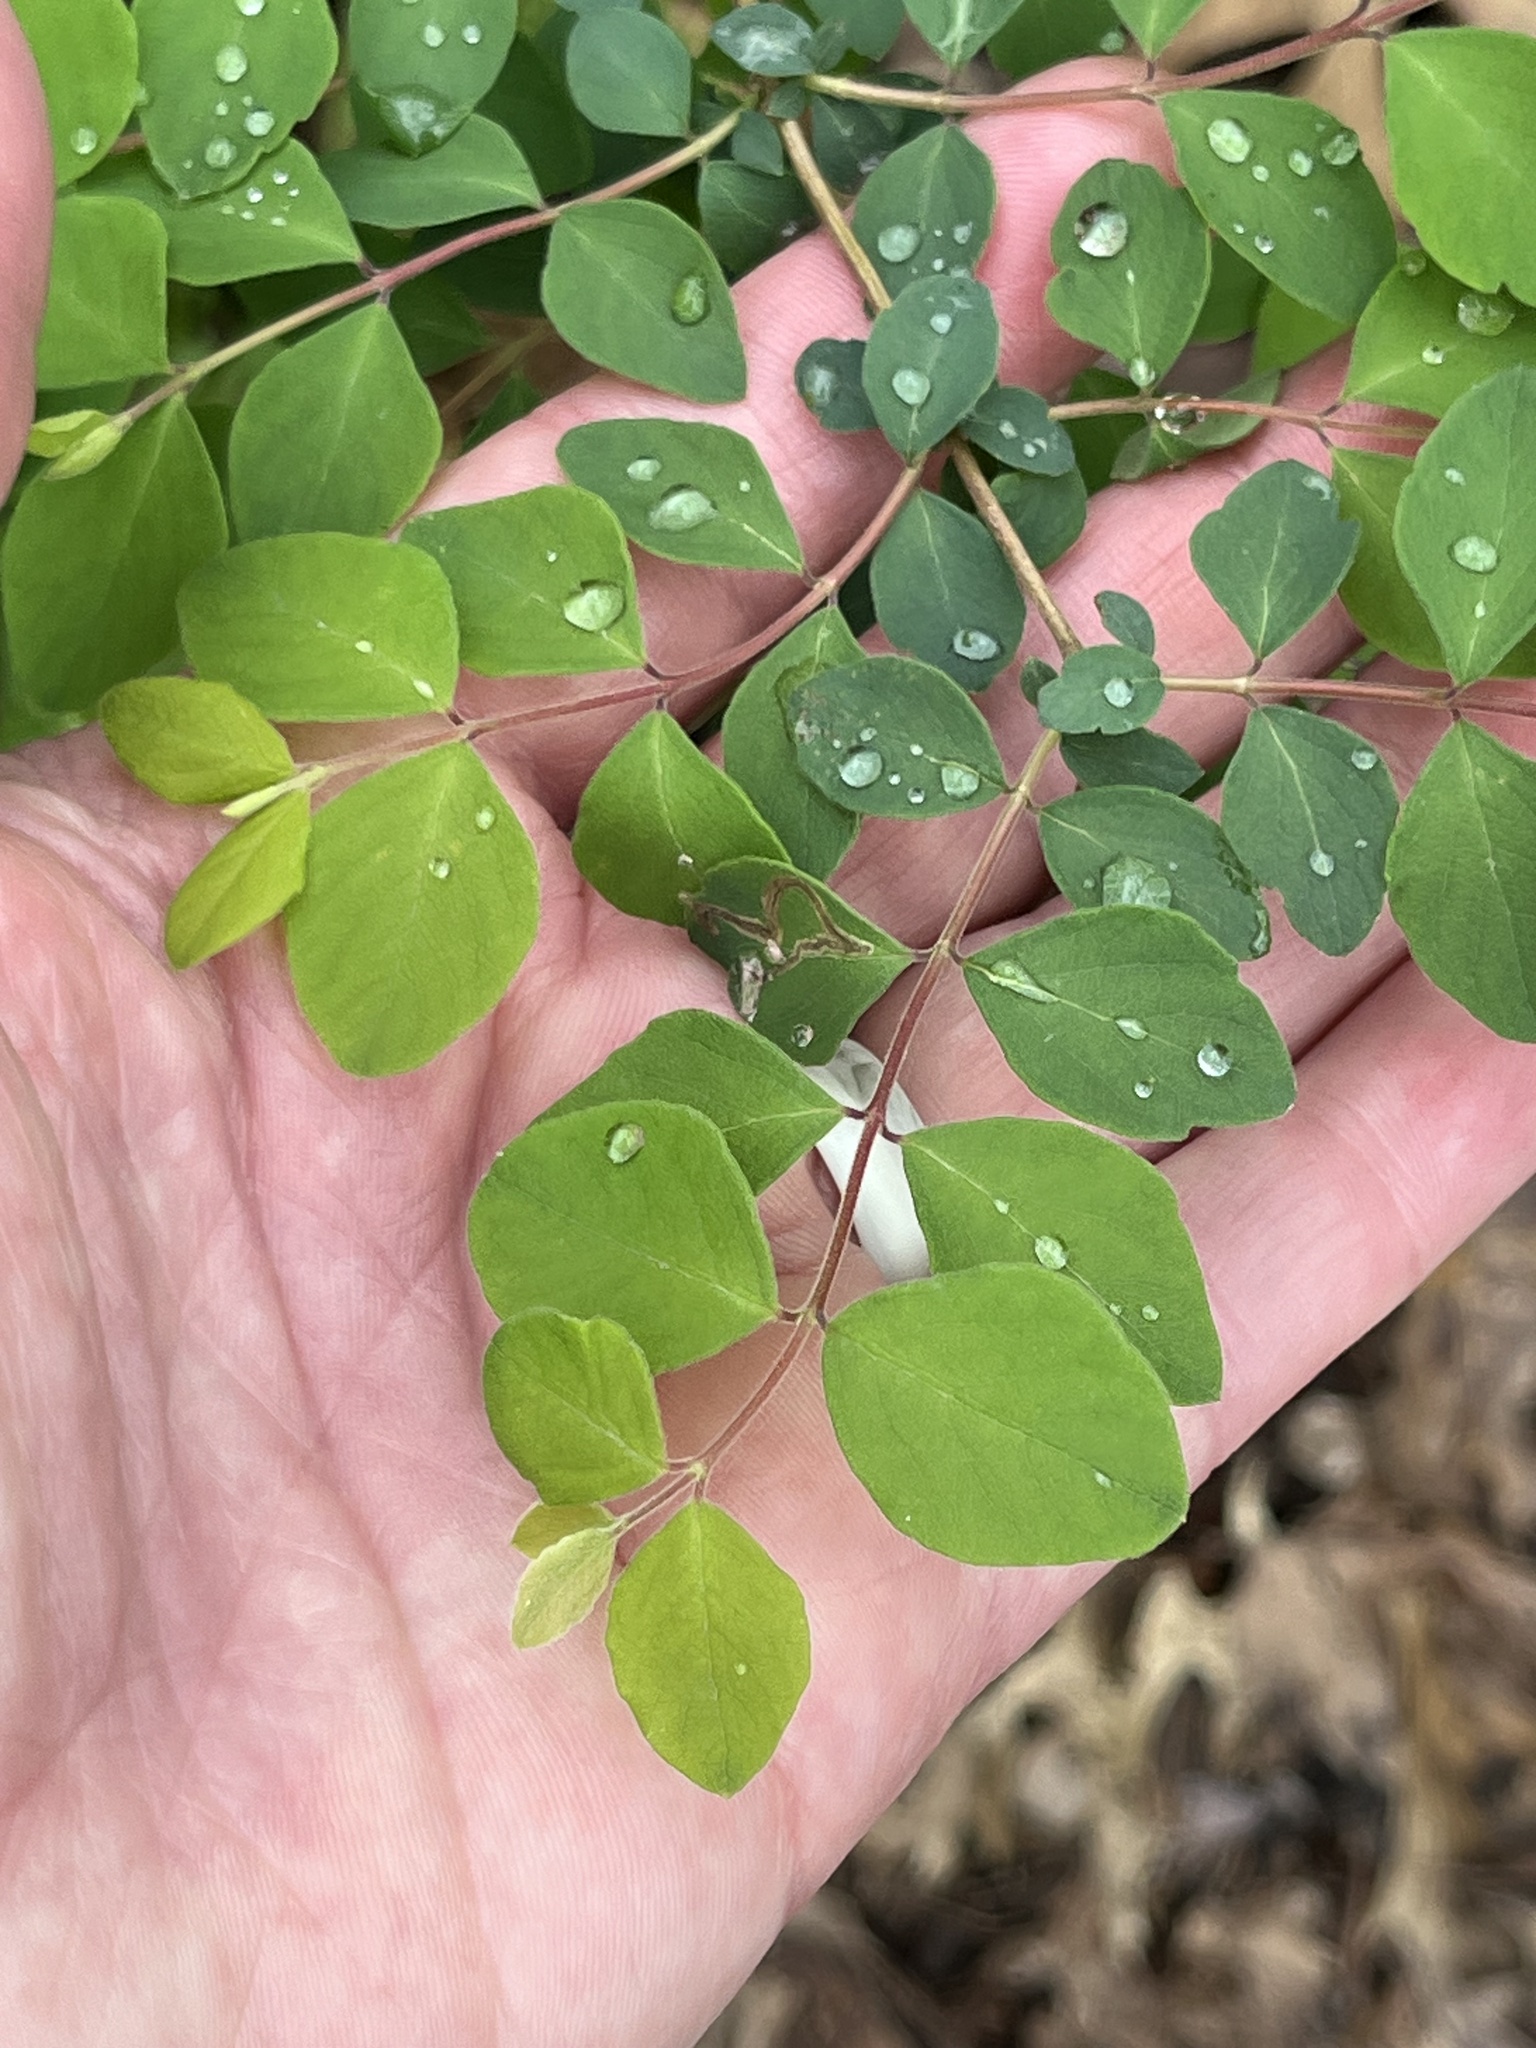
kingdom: Plantae
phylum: Tracheophyta
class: Magnoliopsida
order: Dipsacales
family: Caprifoliaceae
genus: Symphoricarpos
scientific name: Symphoricarpos orbiculatus
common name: Coralberry
